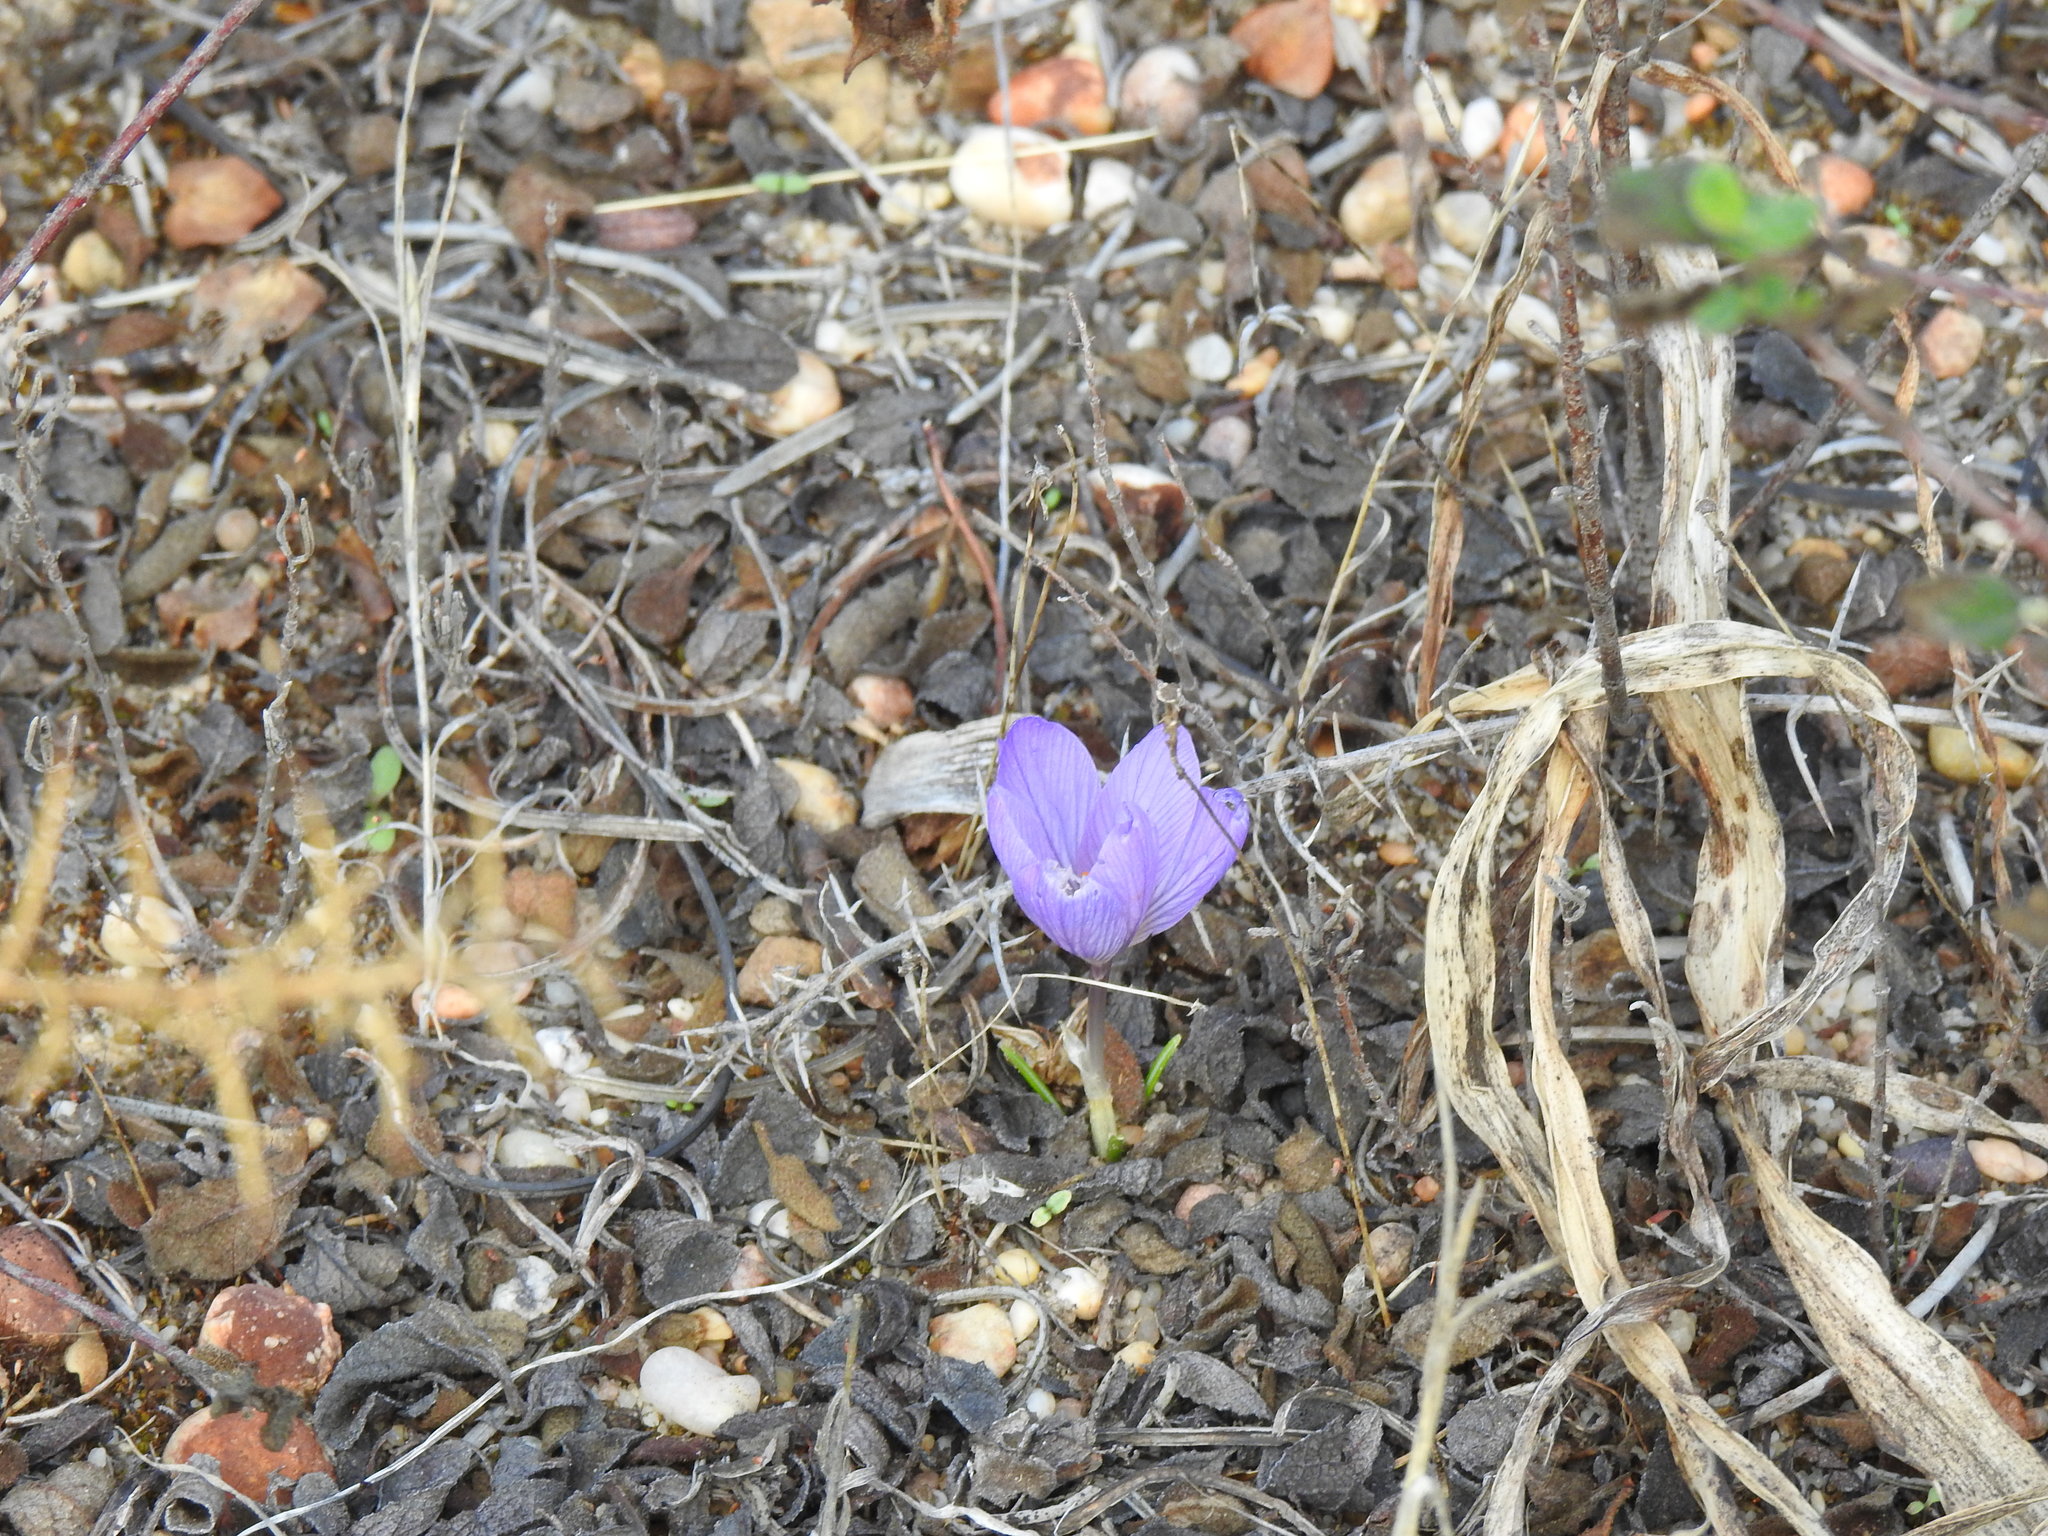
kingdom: Plantae
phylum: Tracheophyta
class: Liliopsida
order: Asparagales
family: Iridaceae
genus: Crocus
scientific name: Crocus serotinus
